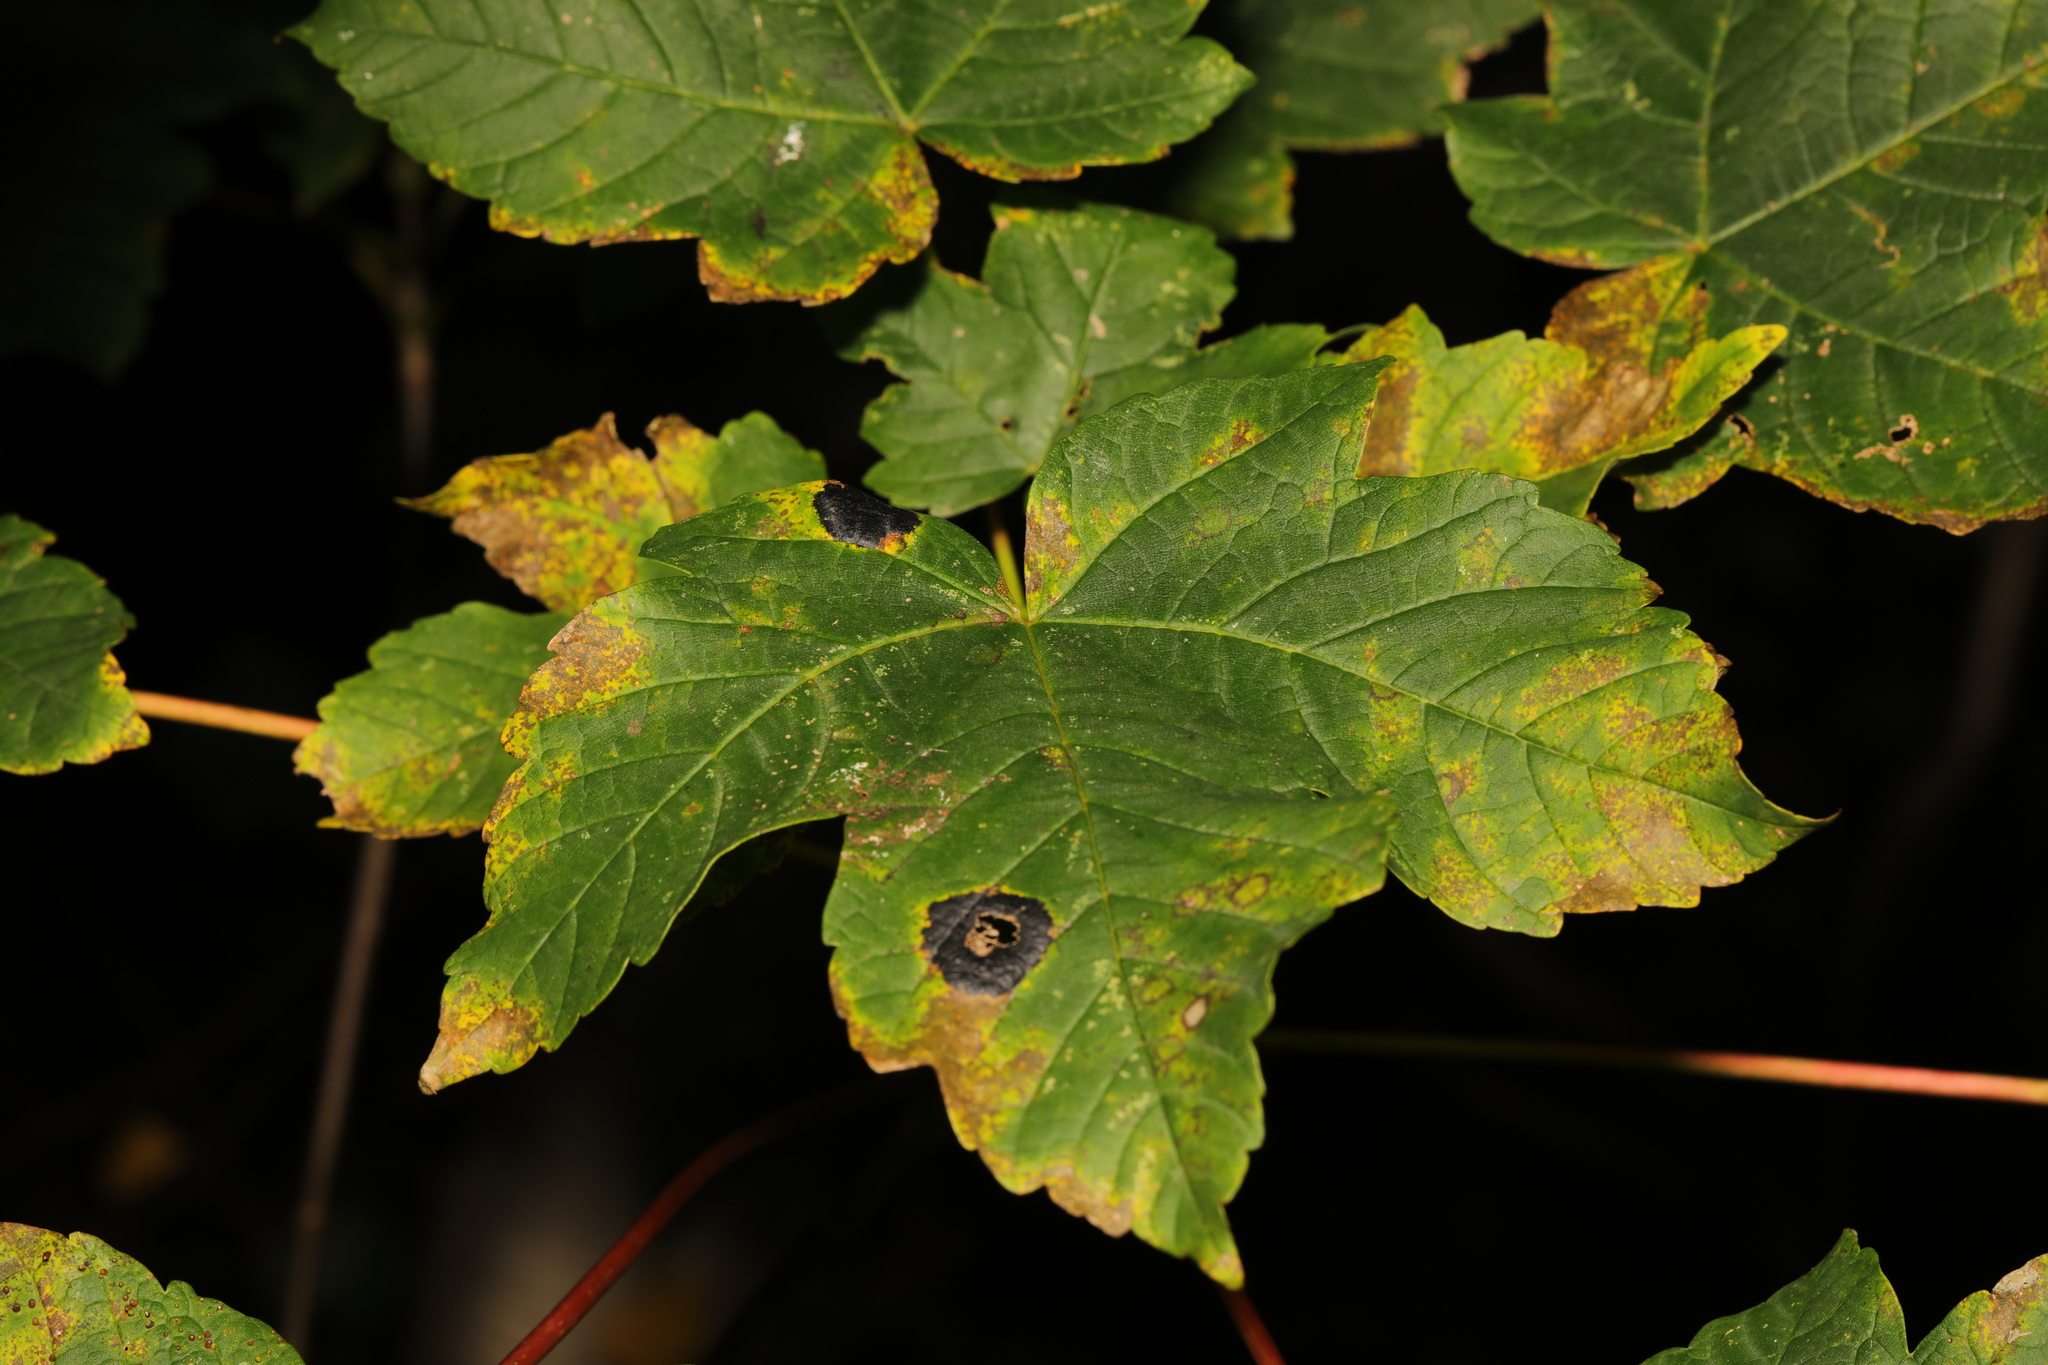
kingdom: Fungi
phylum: Ascomycota
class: Leotiomycetes
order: Rhytismatales
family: Rhytismataceae
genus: Rhytisma
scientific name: Rhytisma acerinum
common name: European tar spot
